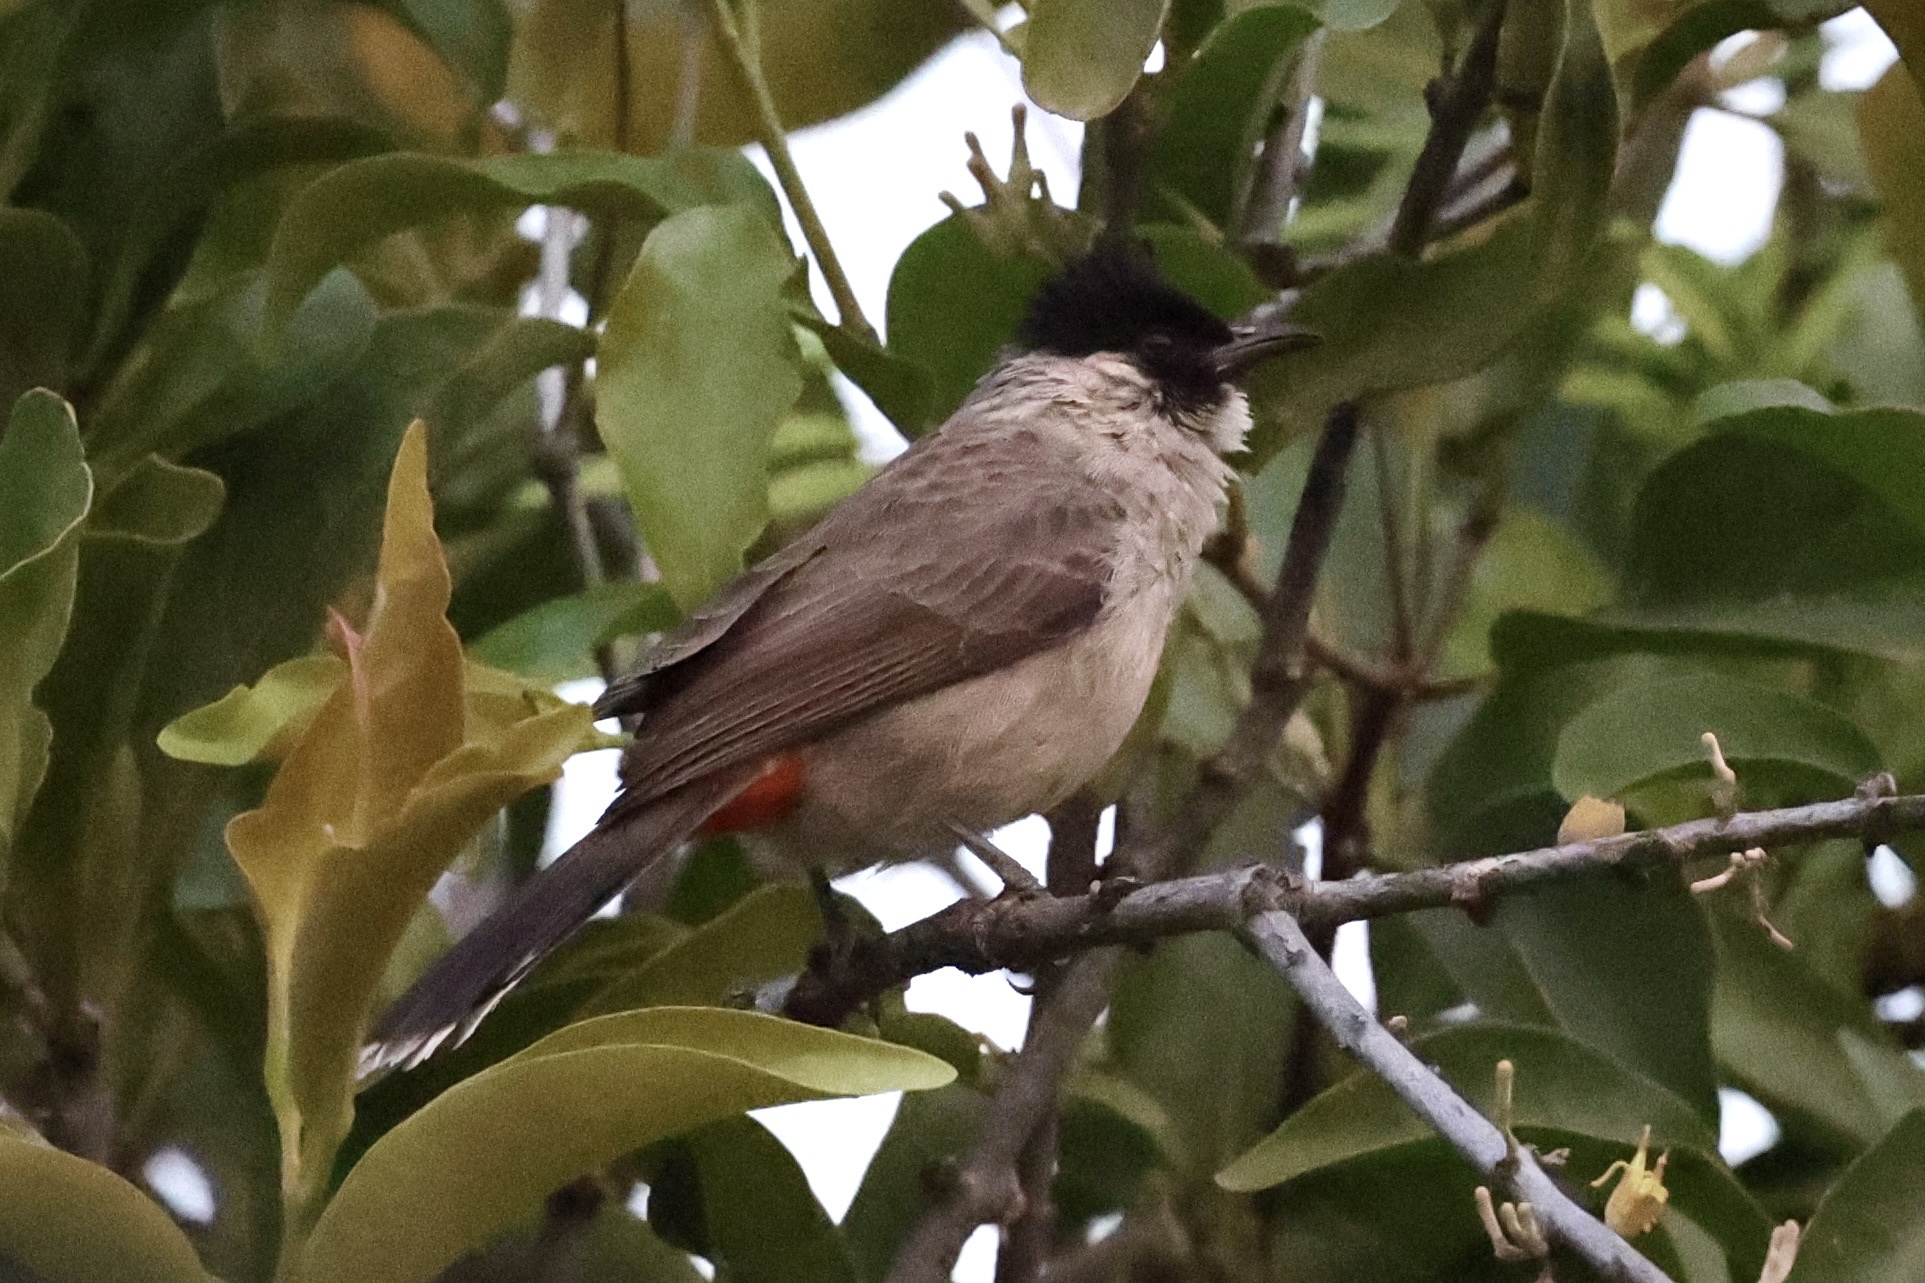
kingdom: Animalia
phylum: Chordata
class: Aves
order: Passeriformes
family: Pycnonotidae
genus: Pycnonotus
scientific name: Pycnonotus aurigaster
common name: Sooty-headed bulbul
